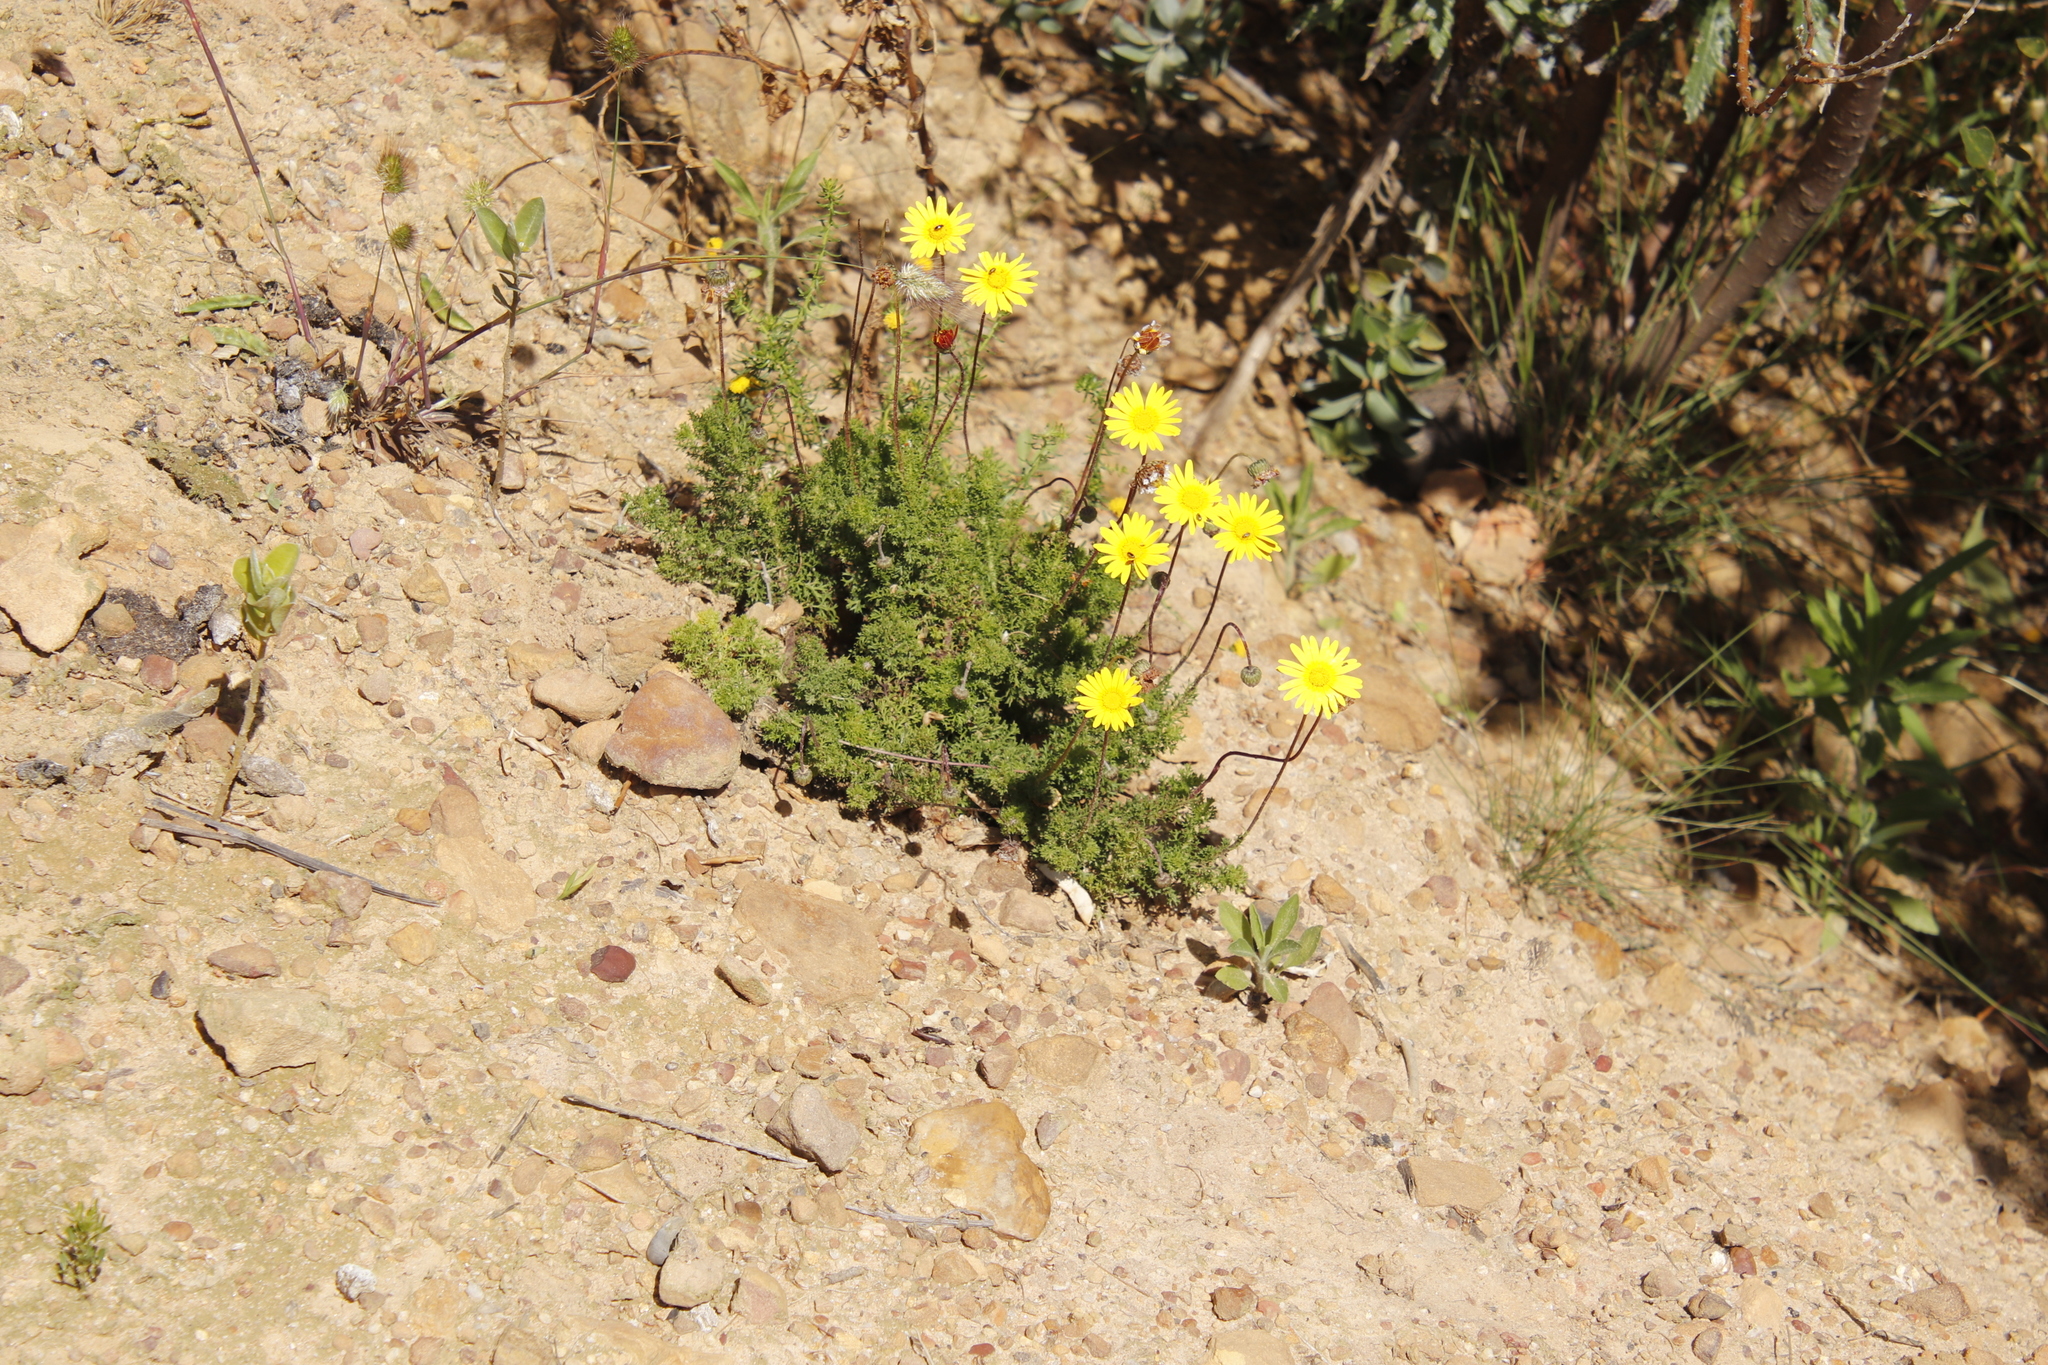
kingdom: Plantae
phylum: Tracheophyta
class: Magnoliopsida
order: Asterales
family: Asteraceae
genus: Ursinia
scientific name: Ursinia paleacea
